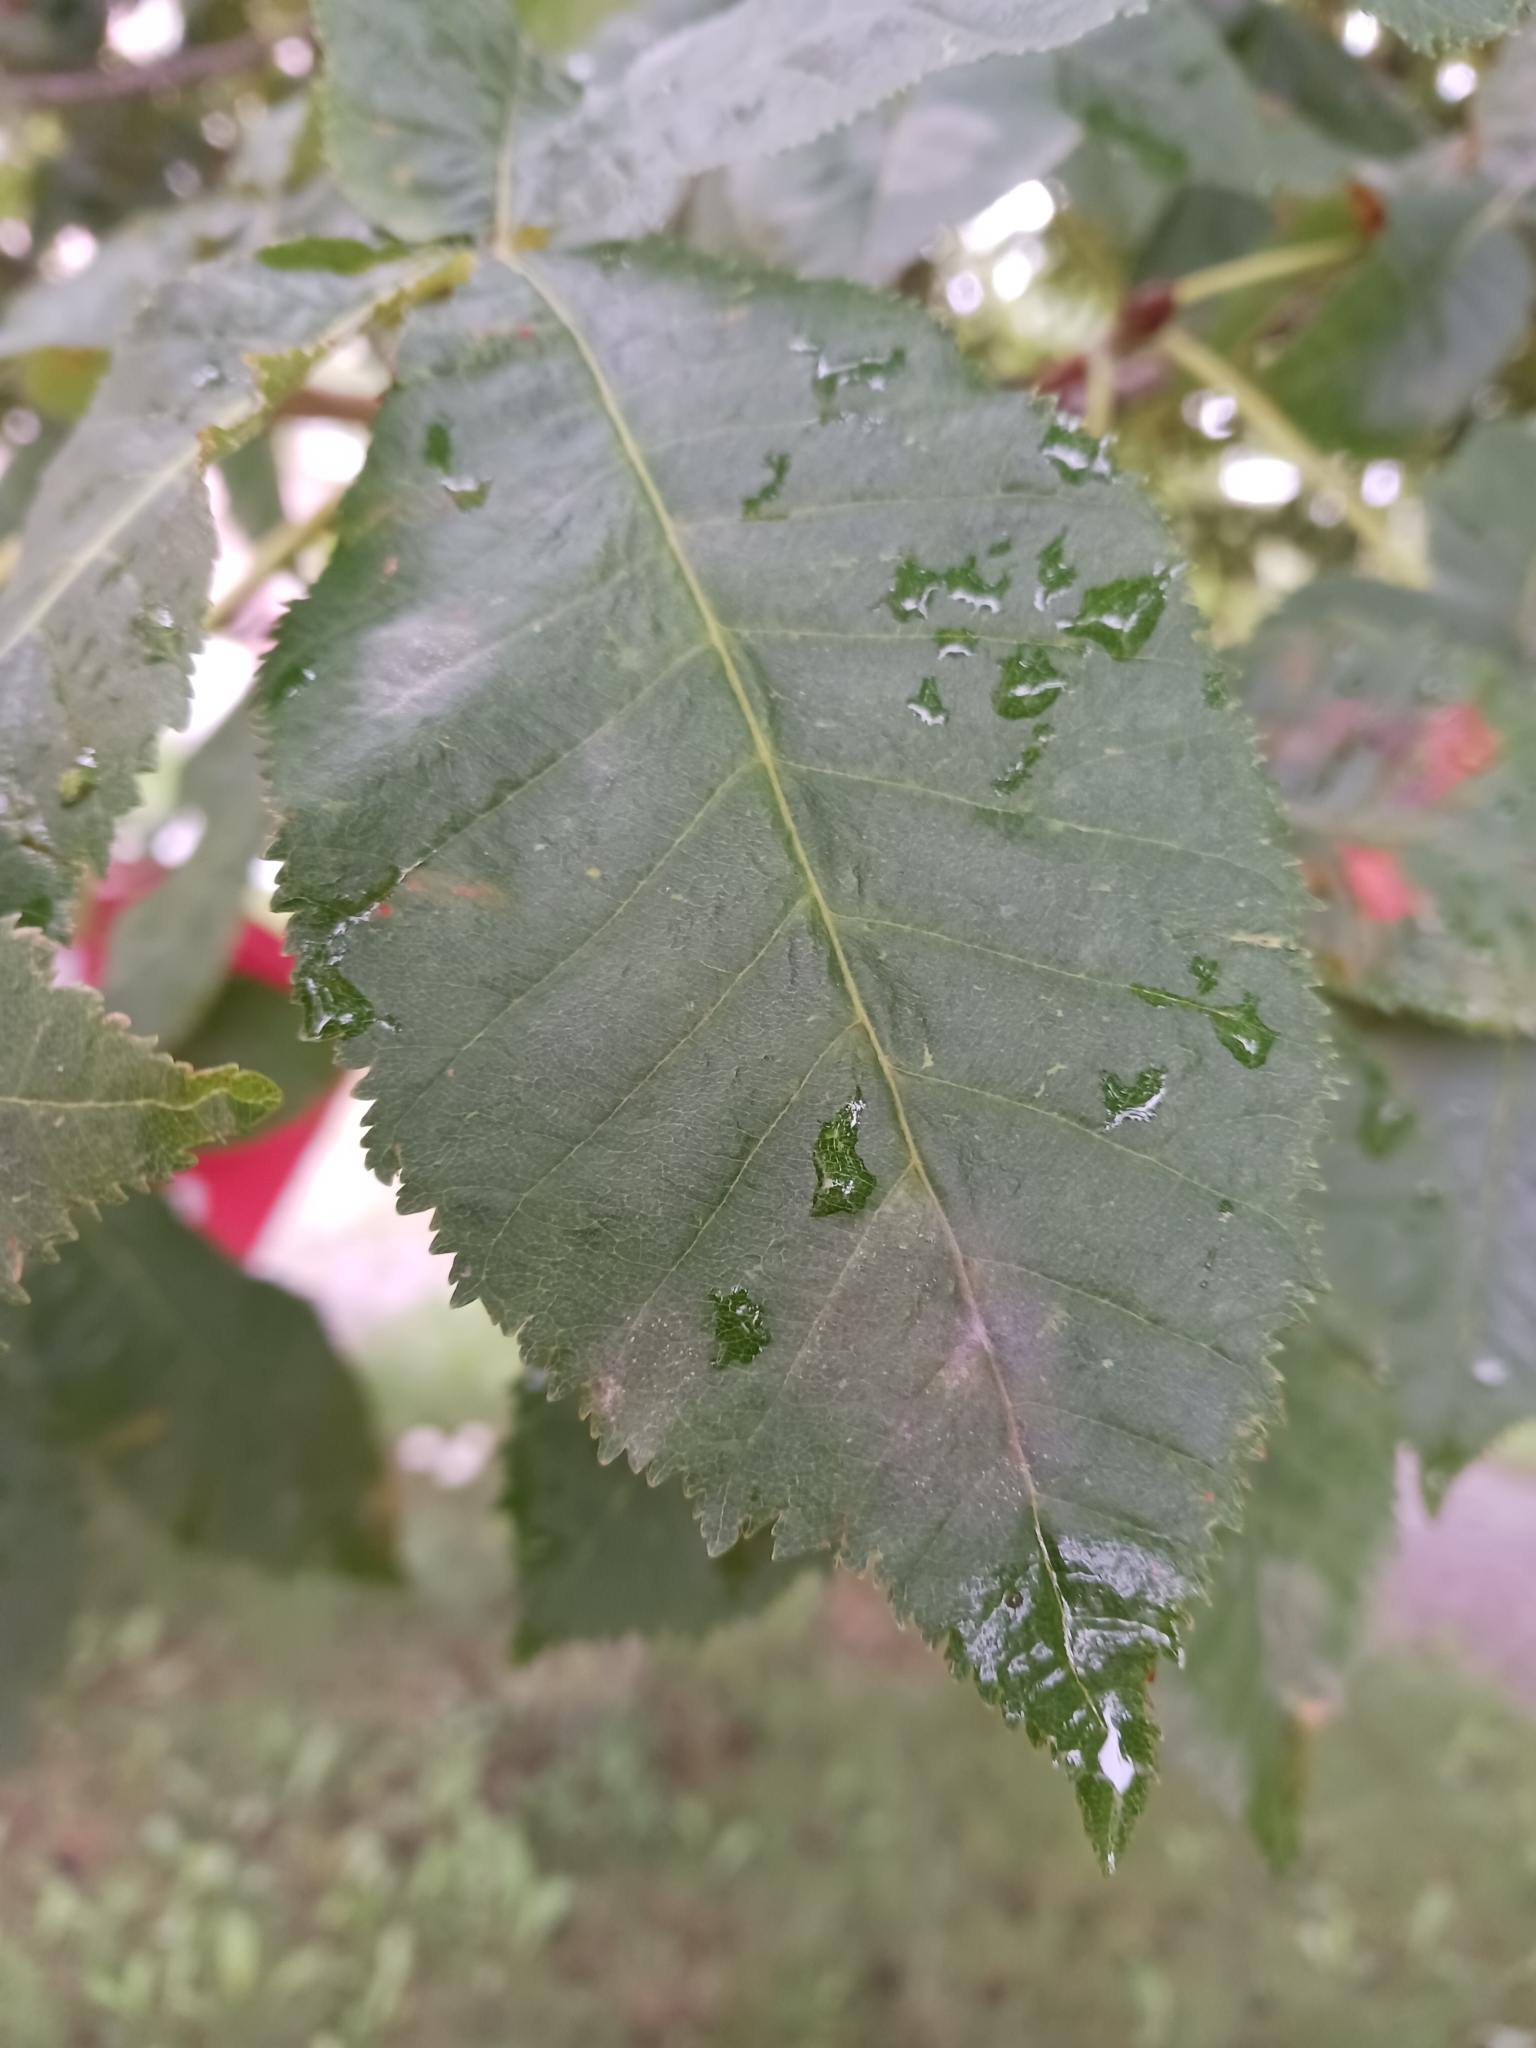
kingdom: Fungi
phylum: Ascomycota
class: Leotiomycetes
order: Helotiales
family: Erysiphaceae
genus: Erysiphe
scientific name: Erysiphe flexuosa
